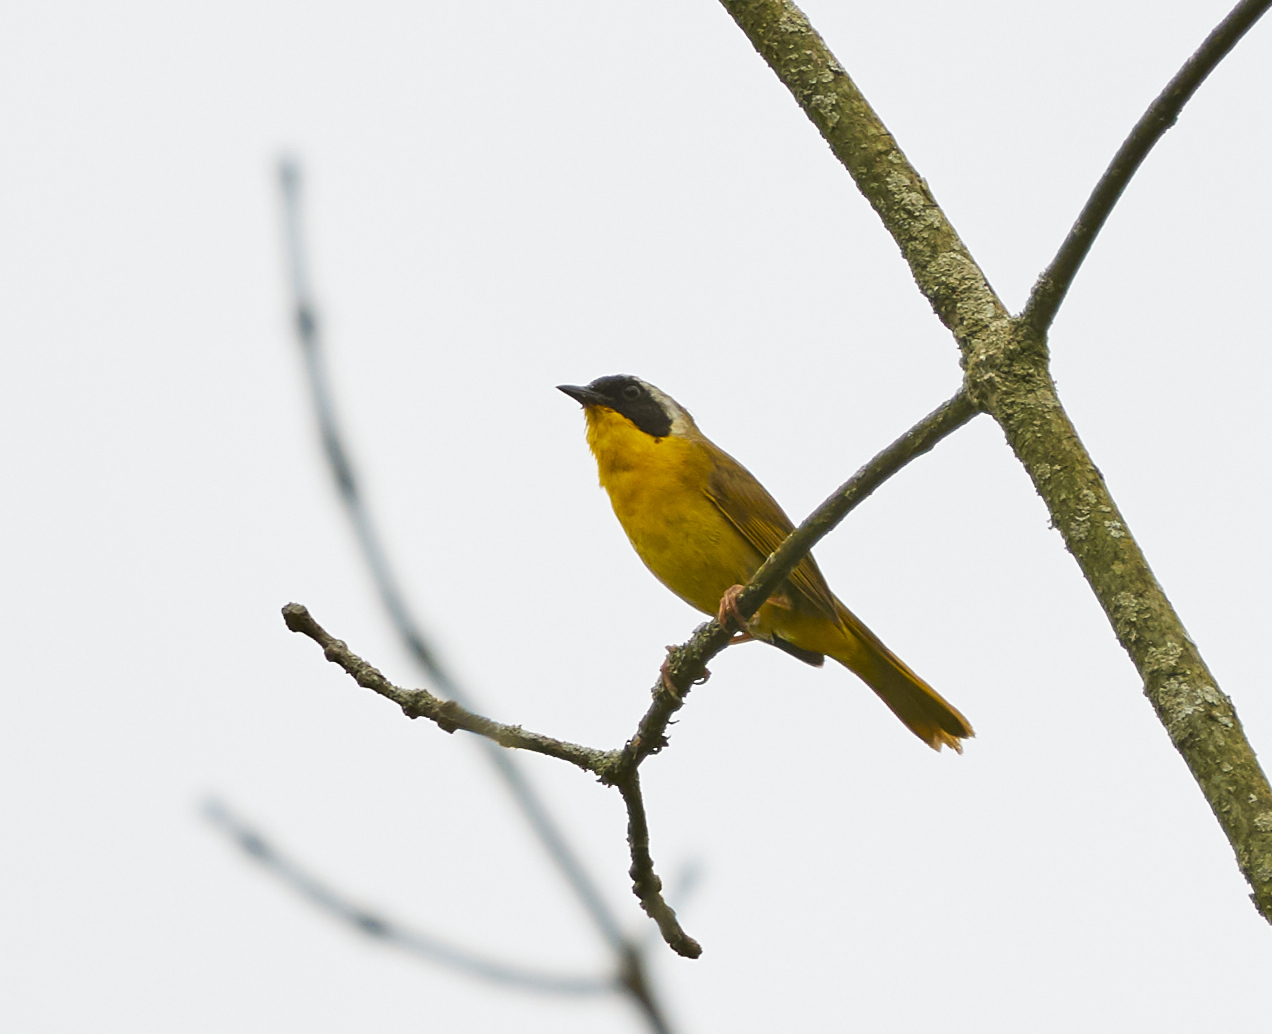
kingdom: Animalia
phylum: Chordata
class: Aves
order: Passeriformes
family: Parulidae
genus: Geothlypis
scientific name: Geothlypis trichas
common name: Common yellowthroat
